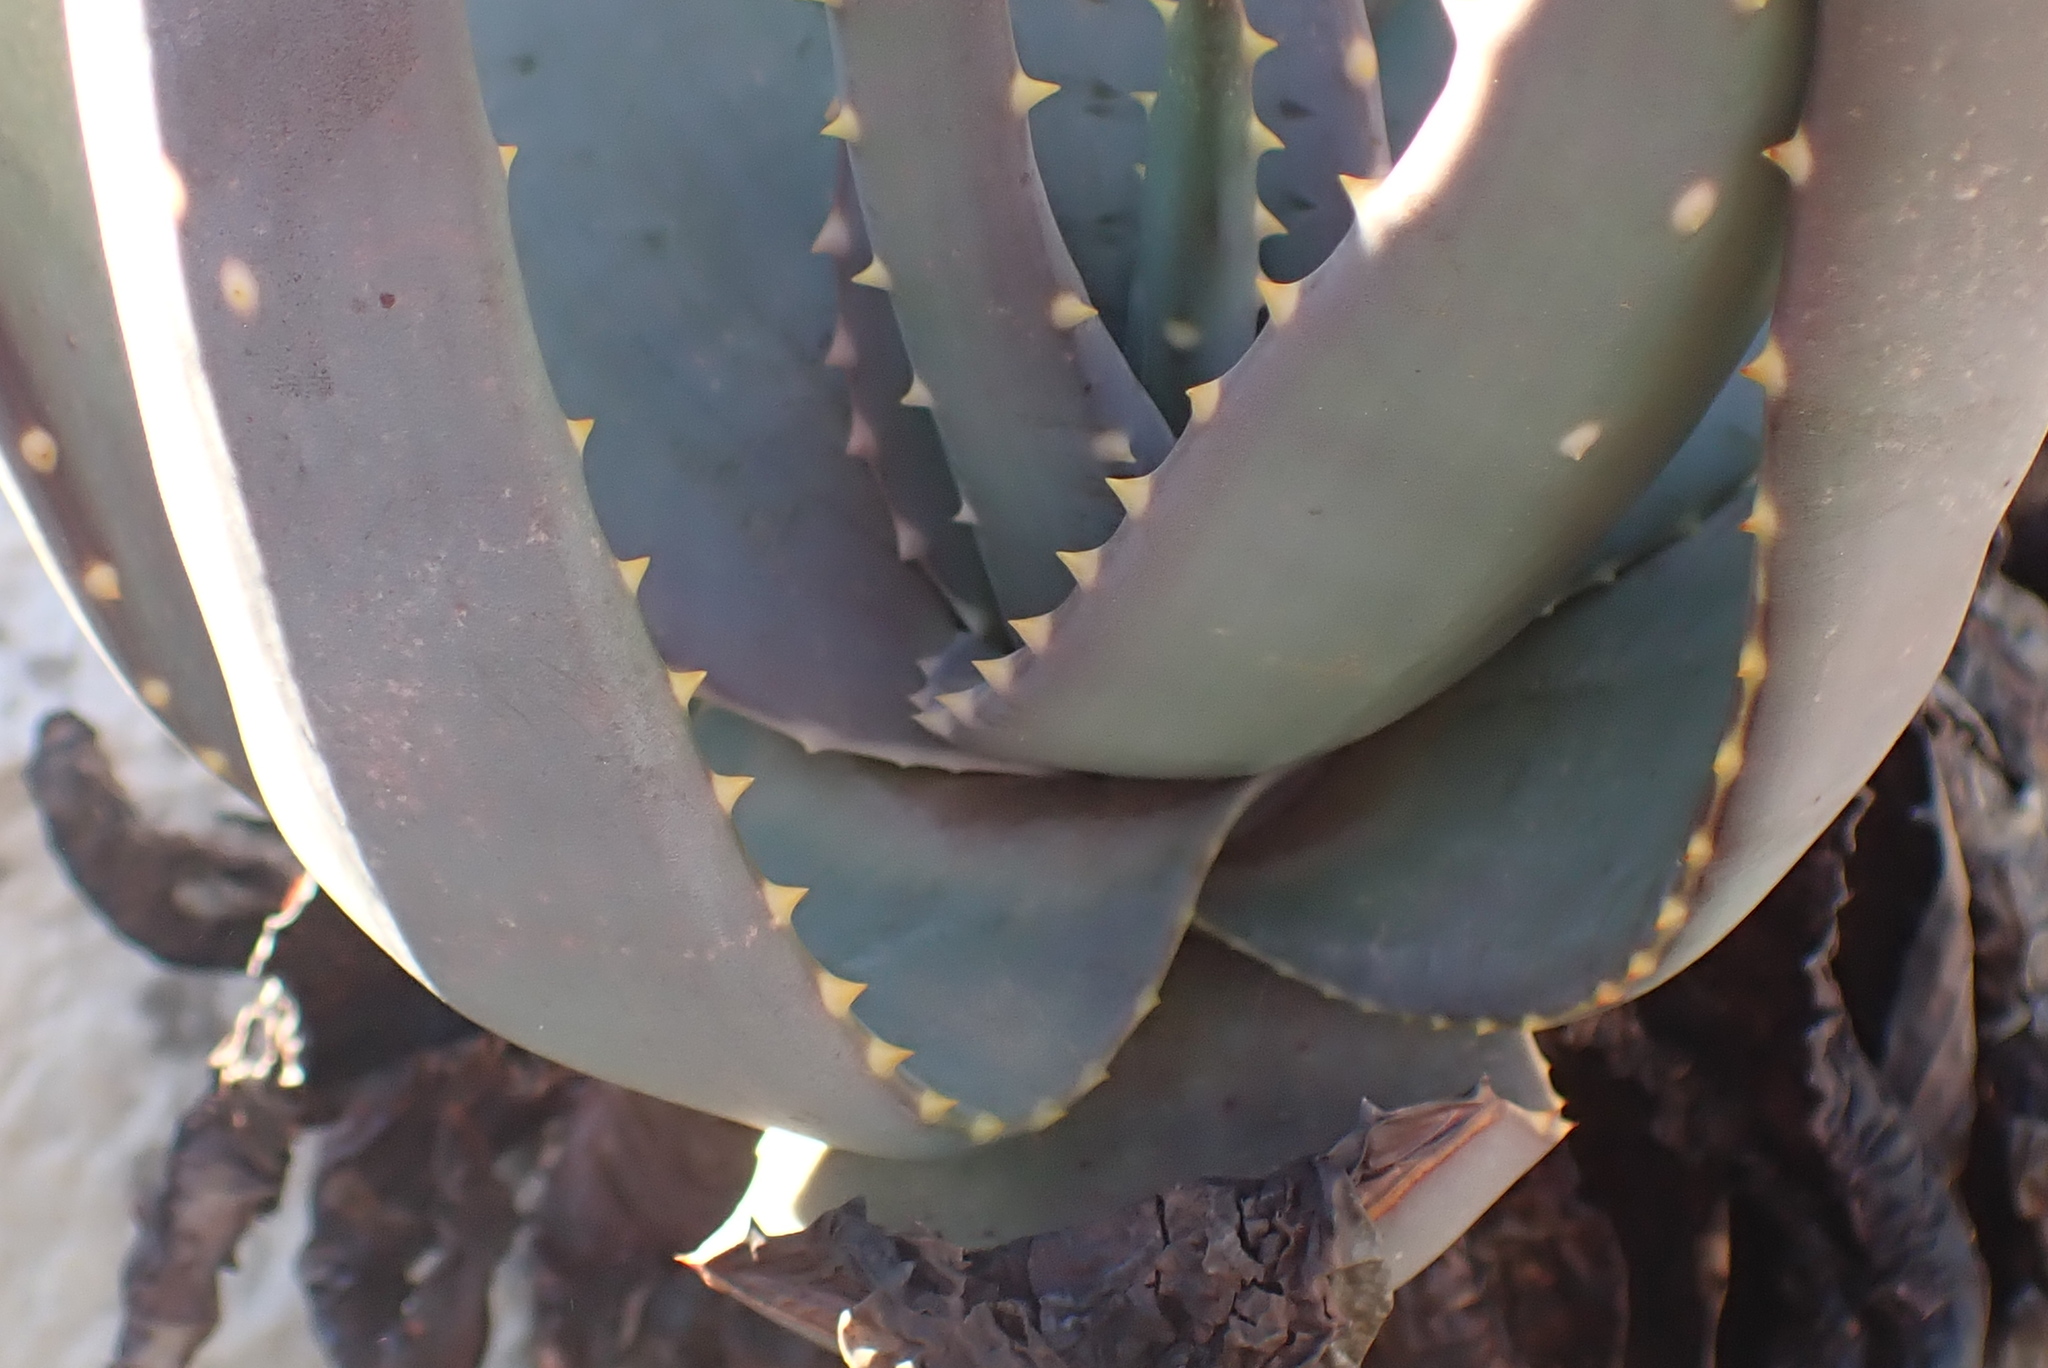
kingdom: Plantae
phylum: Tracheophyta
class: Liliopsida
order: Asparagales
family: Asphodelaceae
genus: Aloe
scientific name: Aloe comptonii
